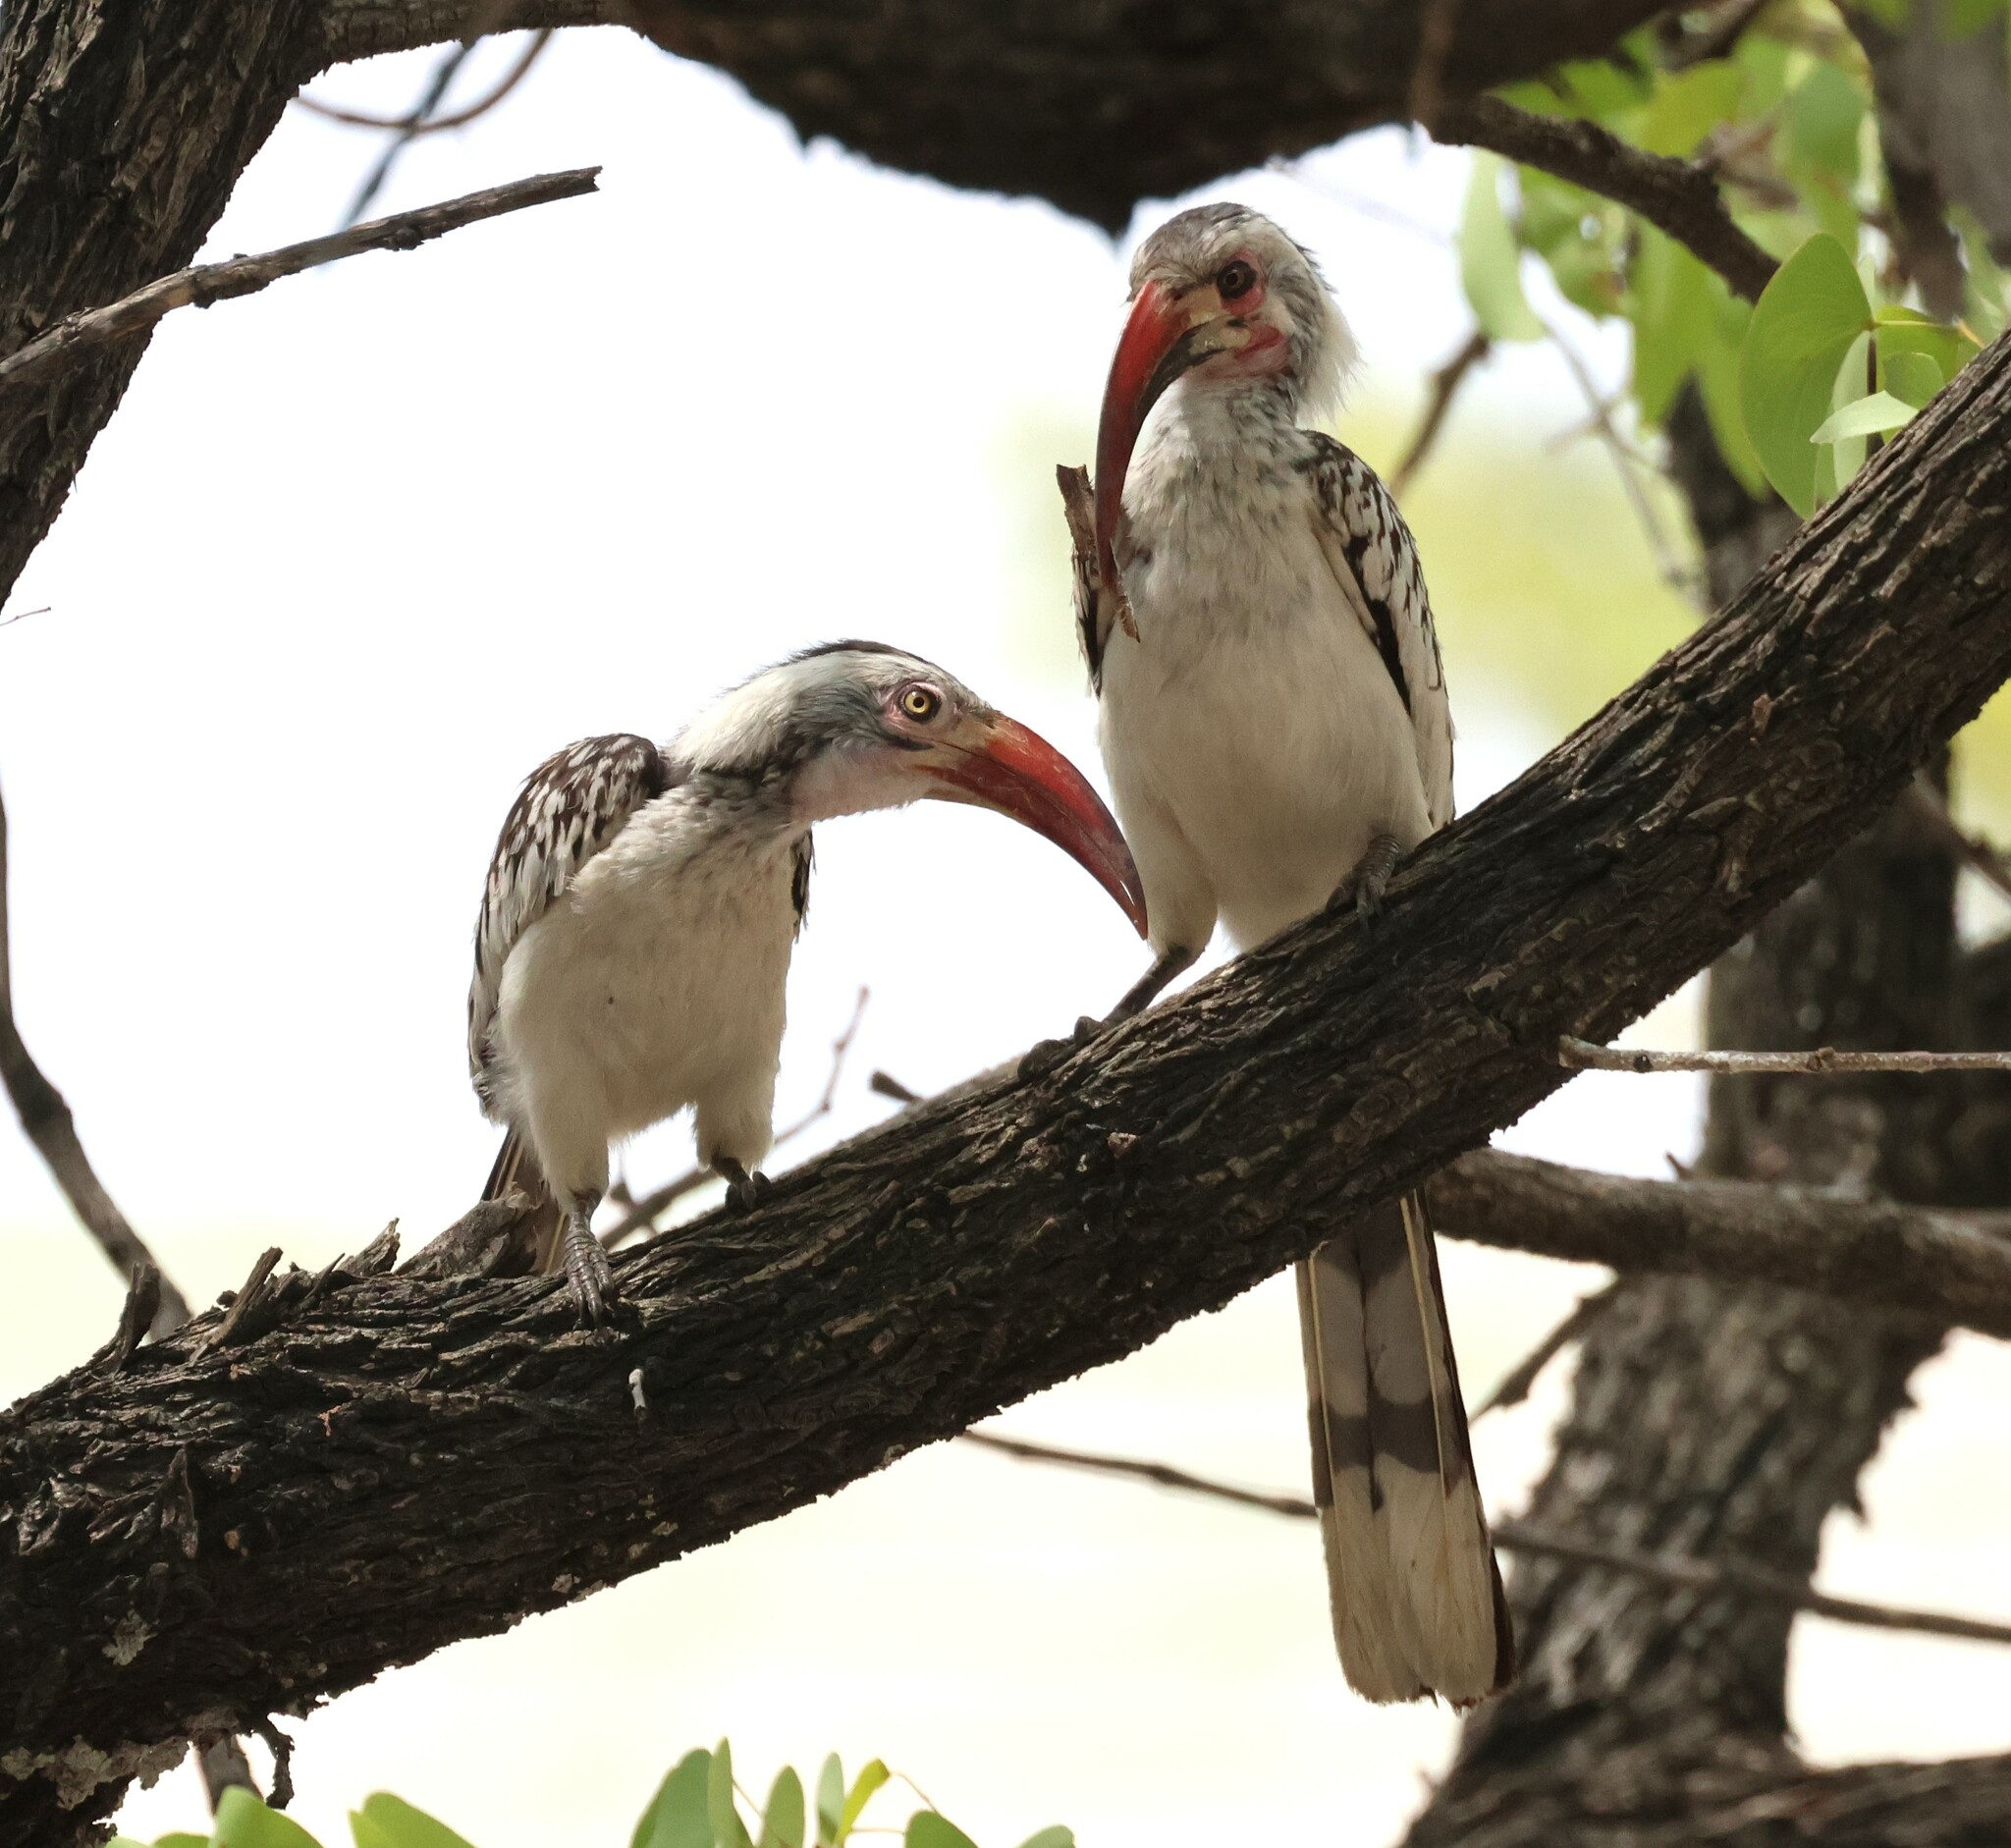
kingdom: Animalia
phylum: Chordata
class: Aves
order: Bucerotiformes
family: Bucerotidae
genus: Tockus
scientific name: Tockus rufirostris
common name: Southern red-billed hornbill
